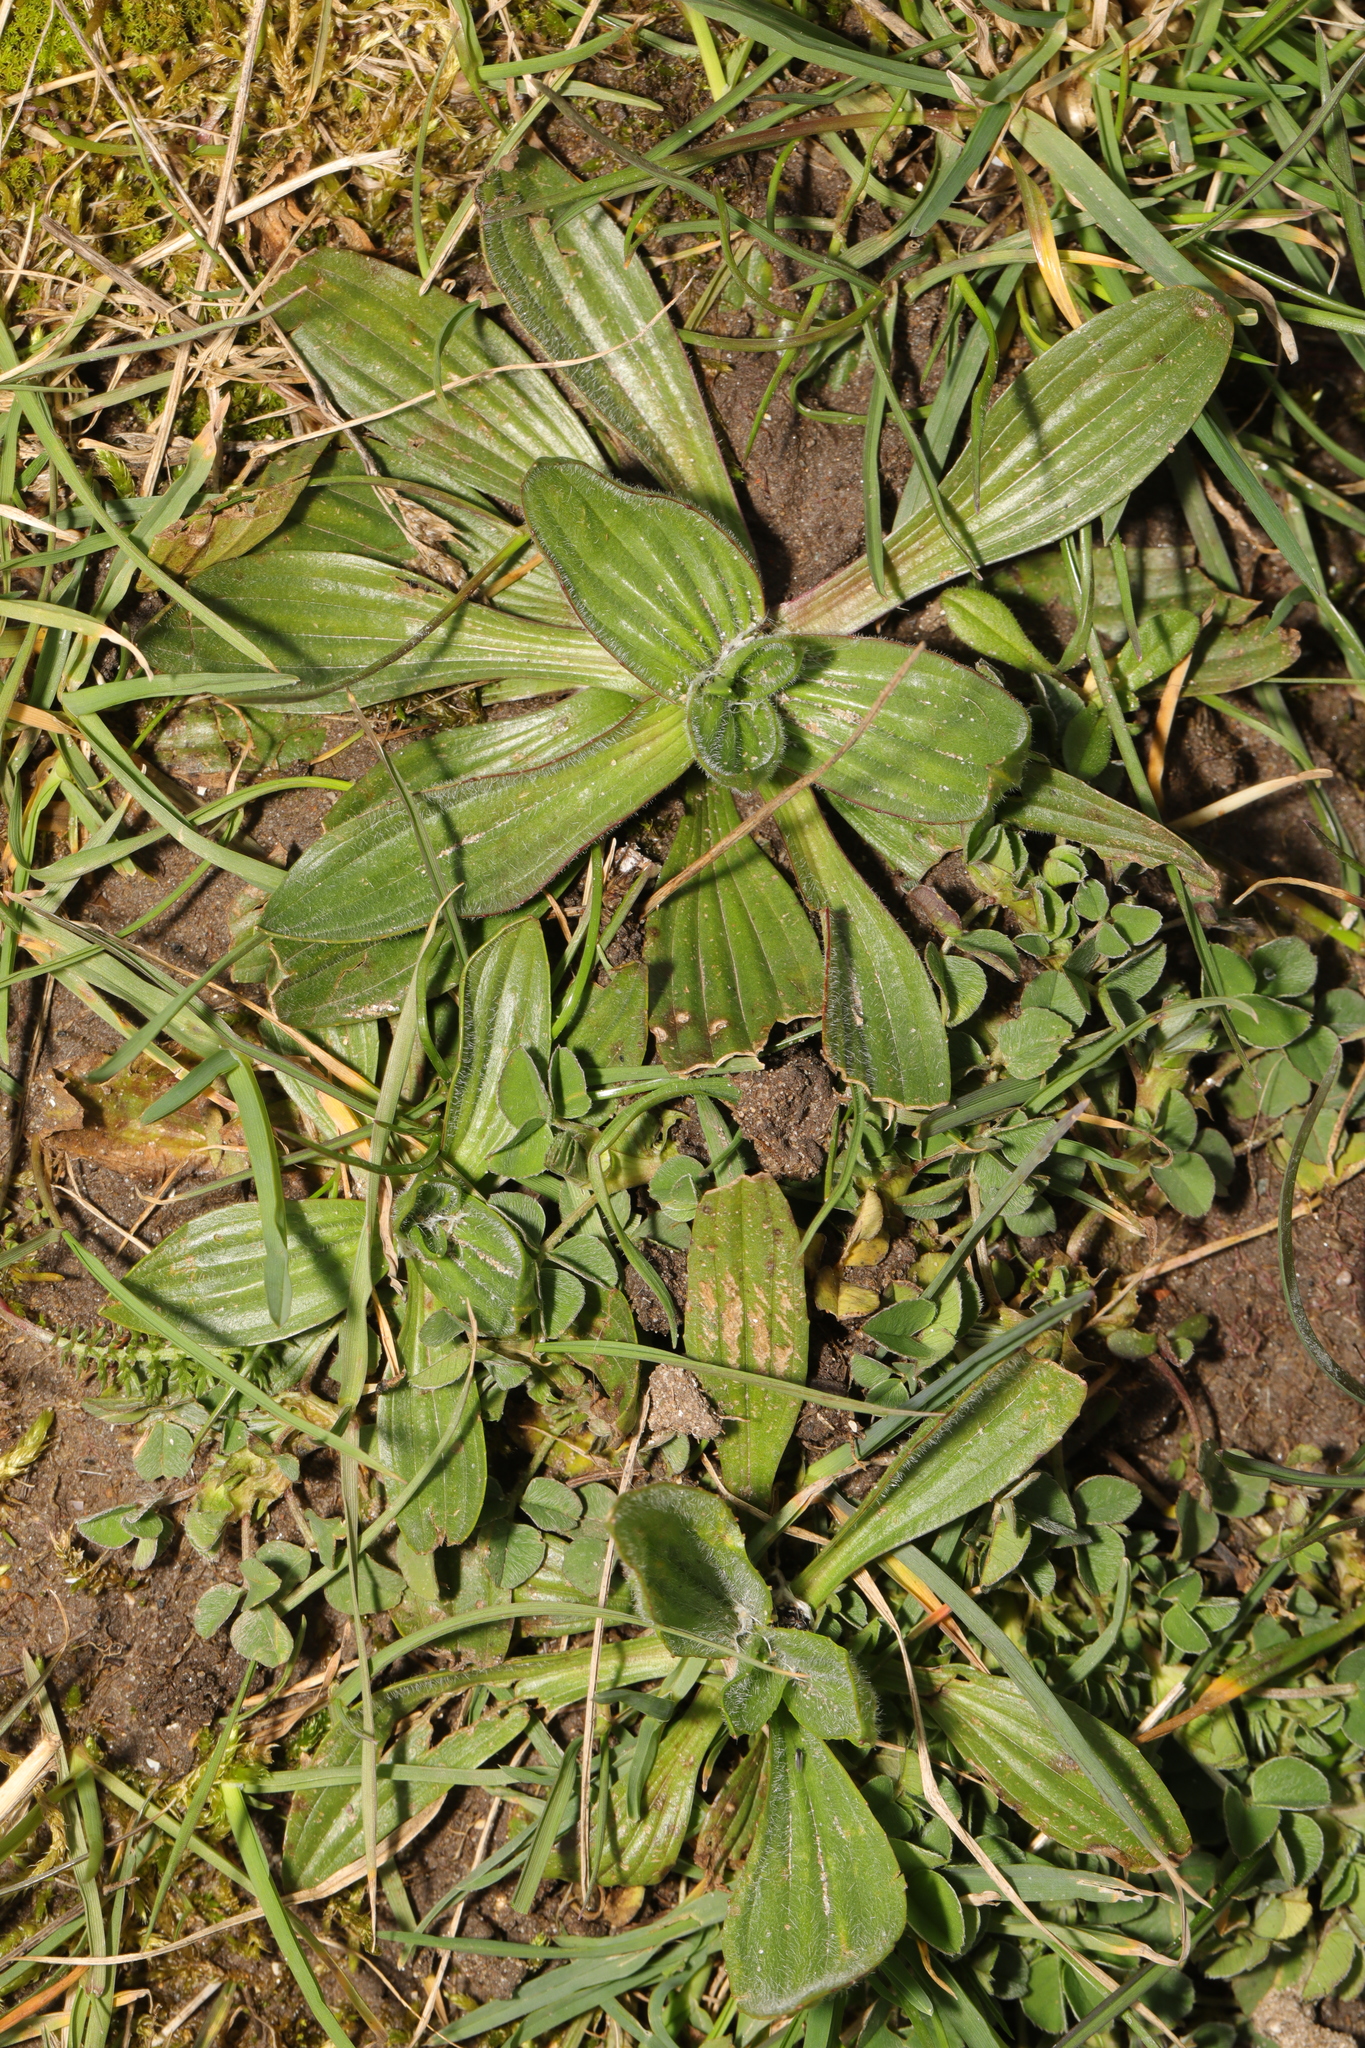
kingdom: Plantae
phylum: Tracheophyta
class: Magnoliopsida
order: Lamiales
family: Plantaginaceae
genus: Plantago
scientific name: Plantago lanceolata
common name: Ribwort plantain
